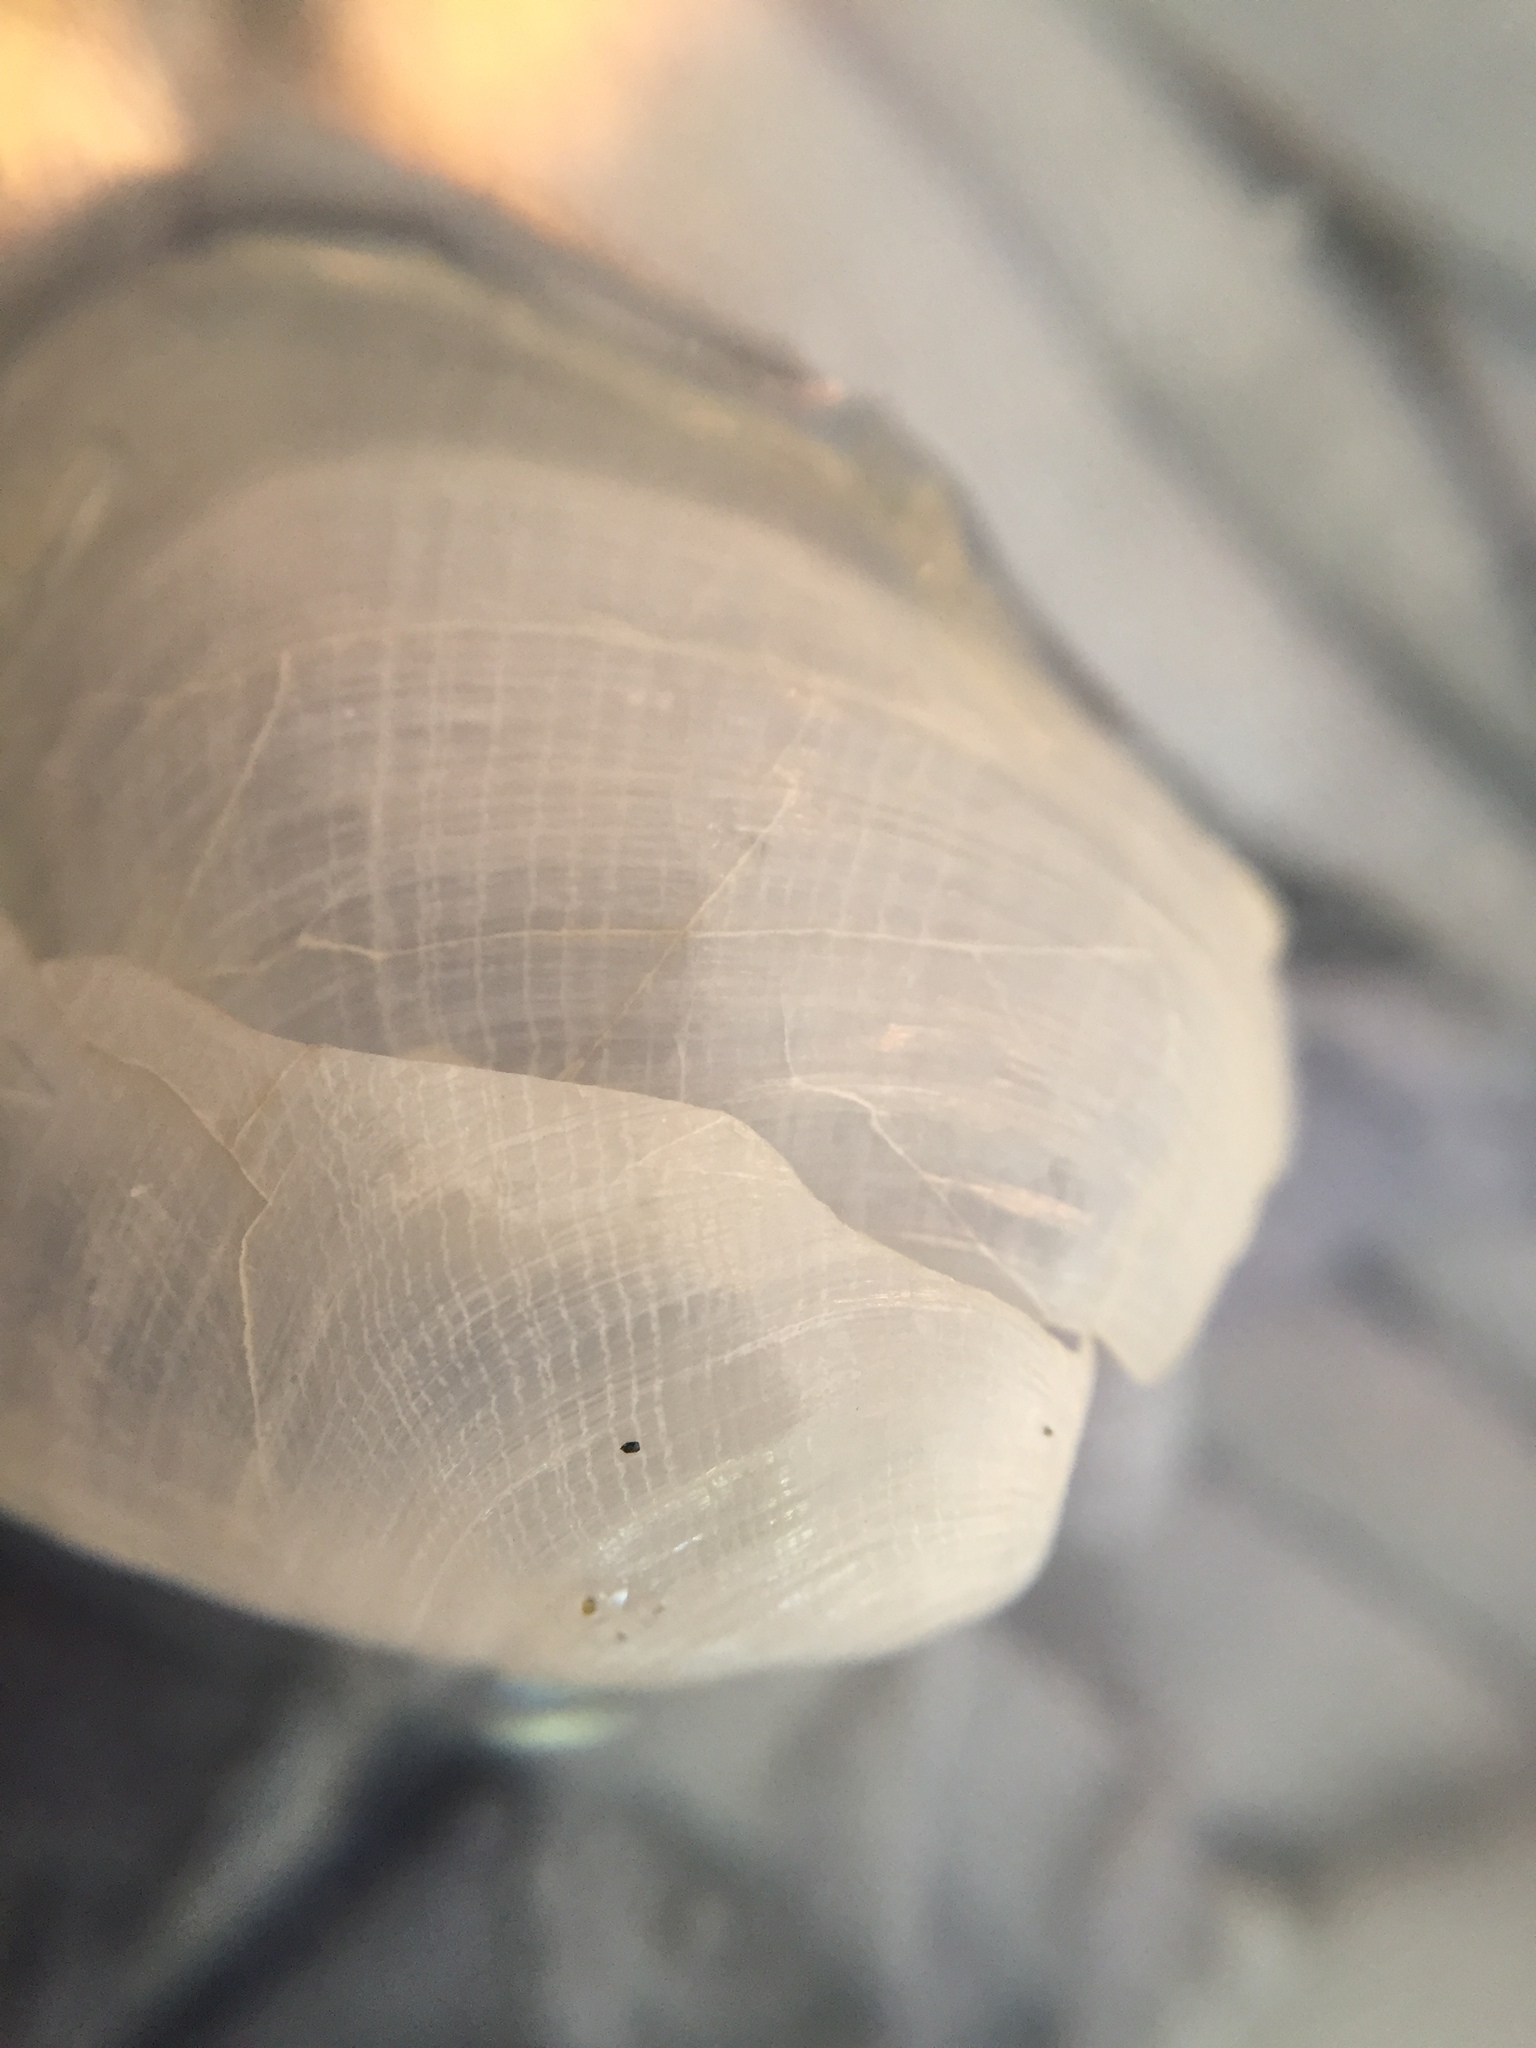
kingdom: Animalia
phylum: Mollusca
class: Gastropoda
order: Cephalaspidea
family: Philinidae
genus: Philine
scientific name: Philine angasi
